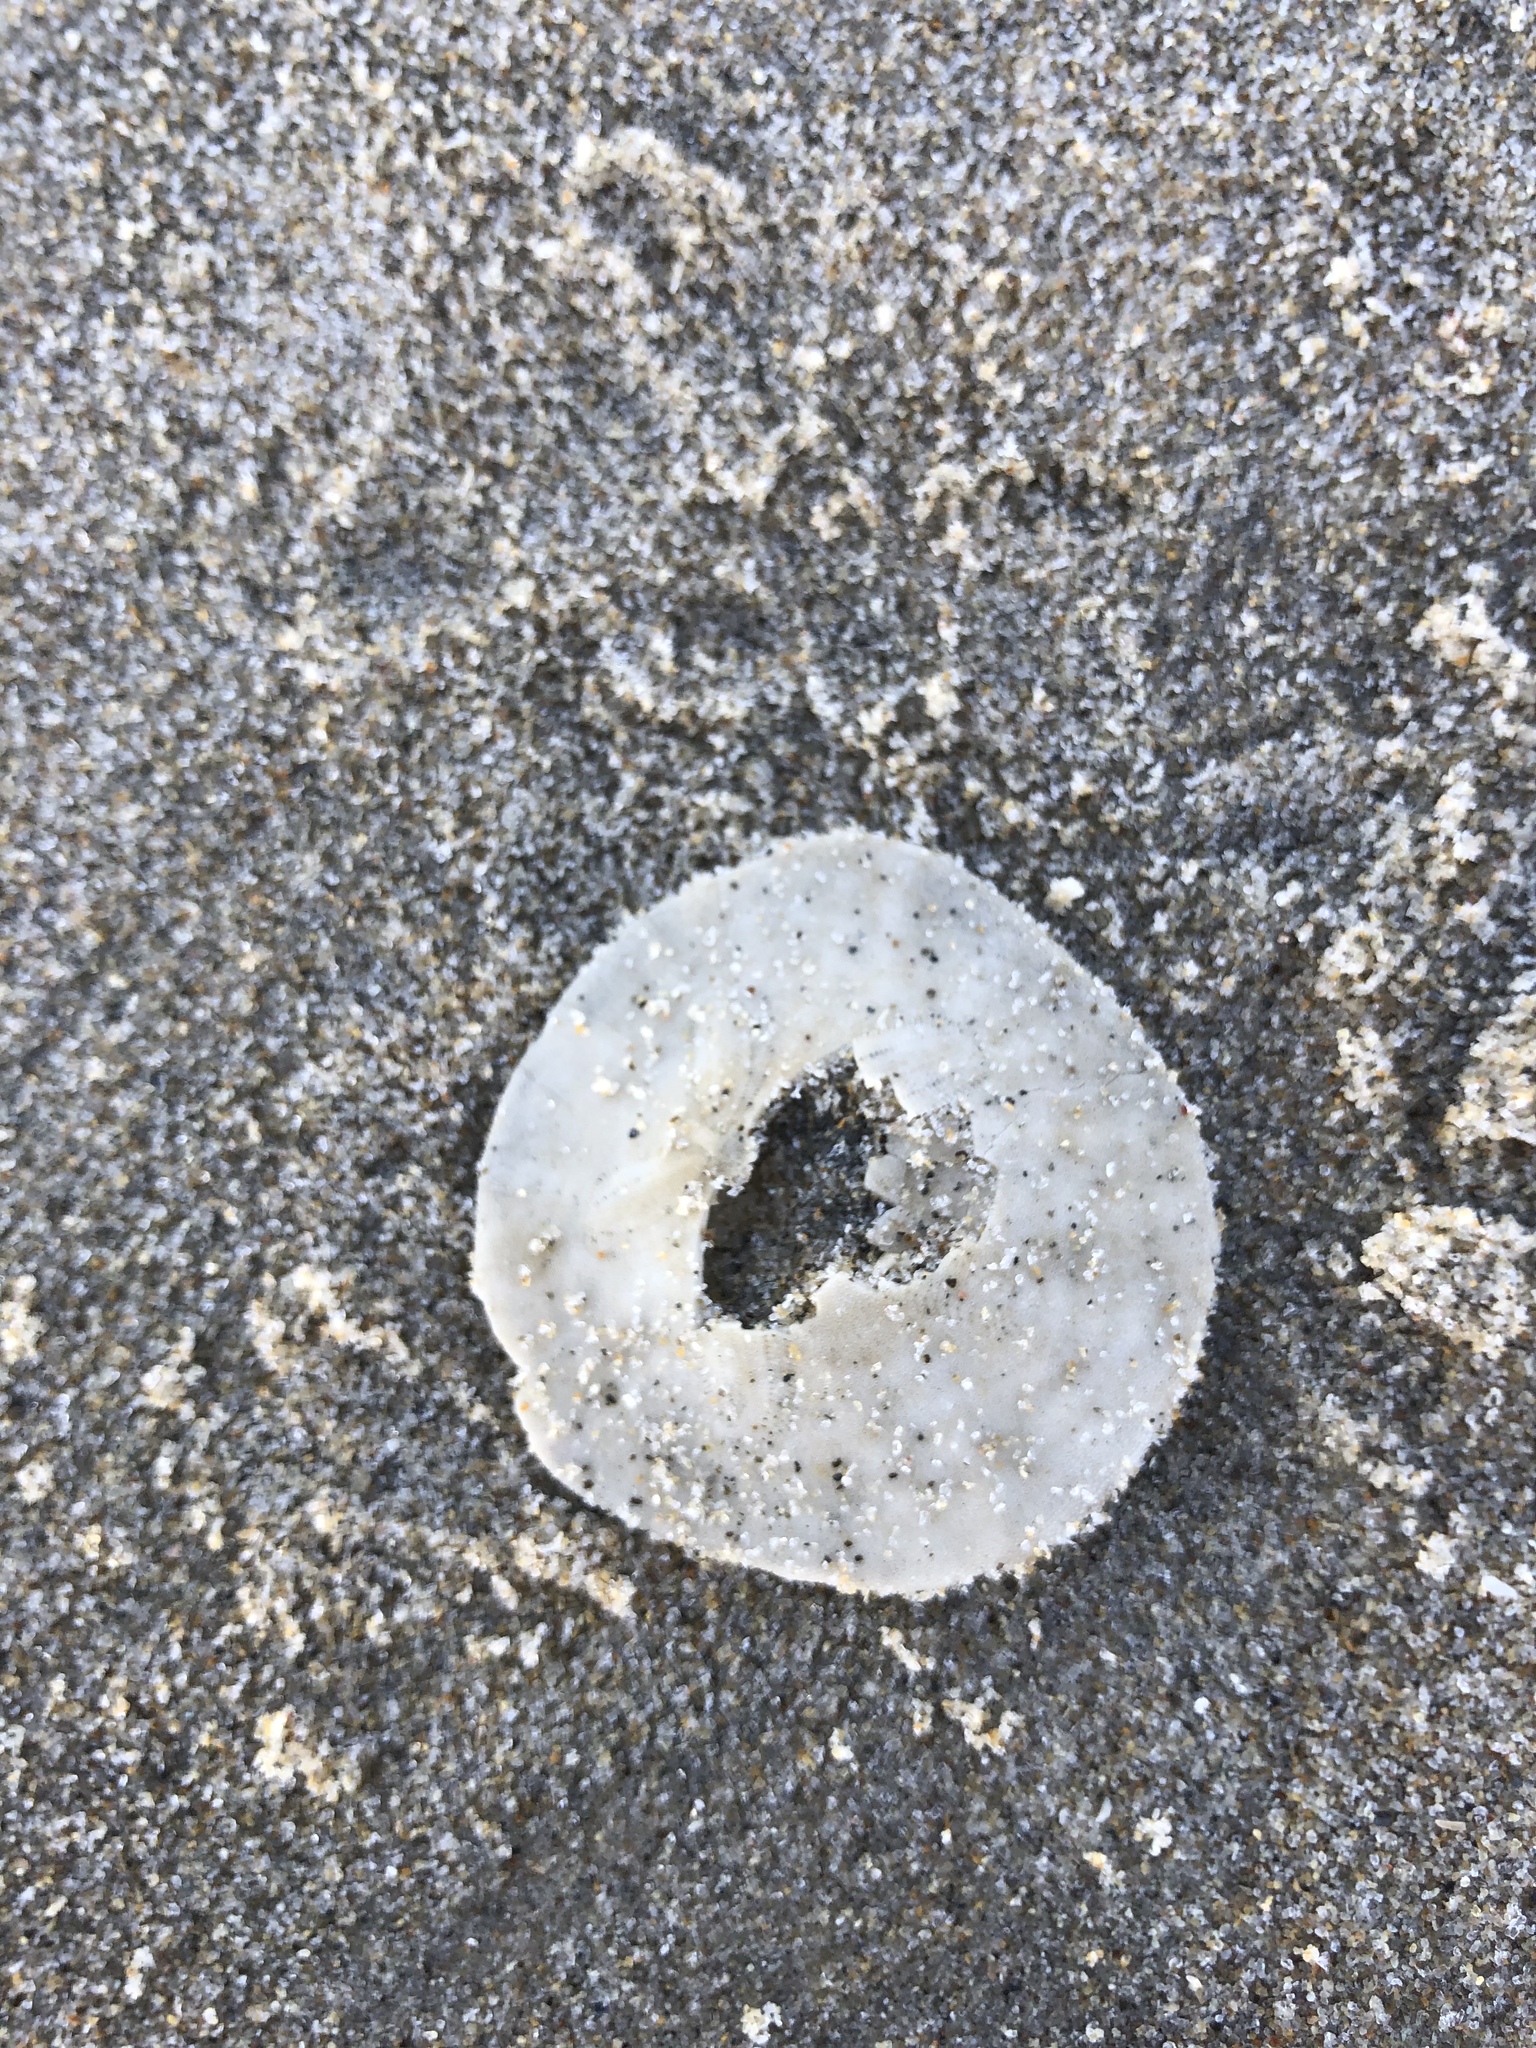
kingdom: Animalia
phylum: Echinodermata
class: Echinoidea
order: Echinolampadacea
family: Dendrasteridae
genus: Dendraster
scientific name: Dendraster excentricus
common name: Eccentric sand dollar sea urchin
